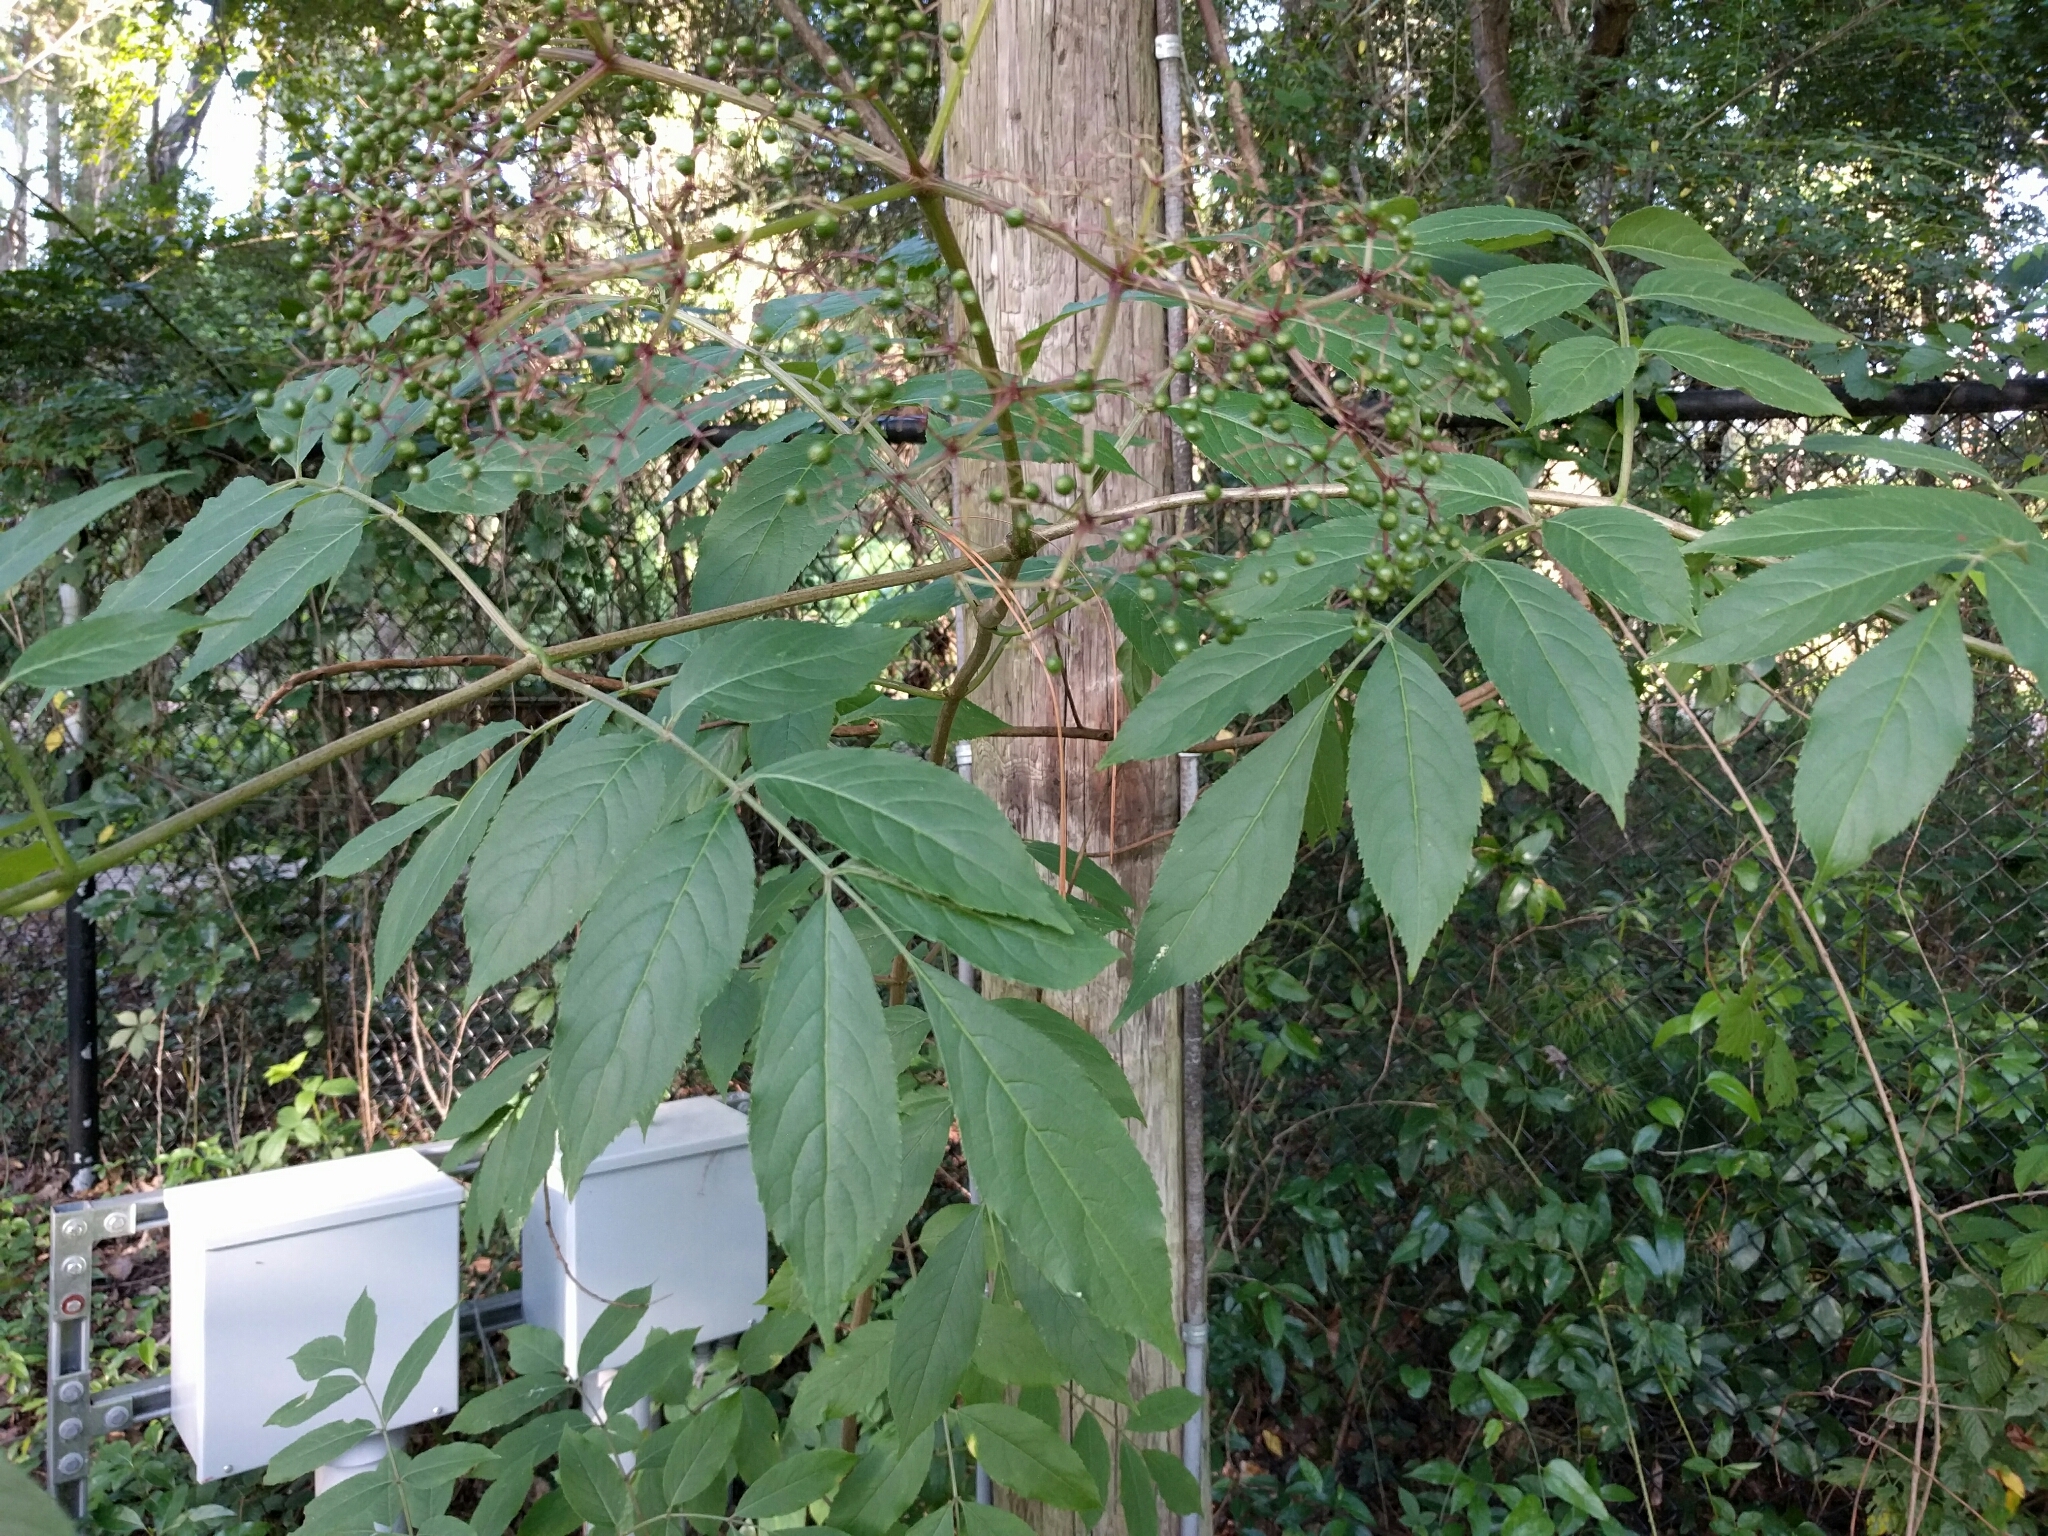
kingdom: Plantae
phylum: Tracheophyta
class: Magnoliopsida
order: Dipsacales
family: Viburnaceae
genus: Sambucus
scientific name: Sambucus canadensis
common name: American elder
